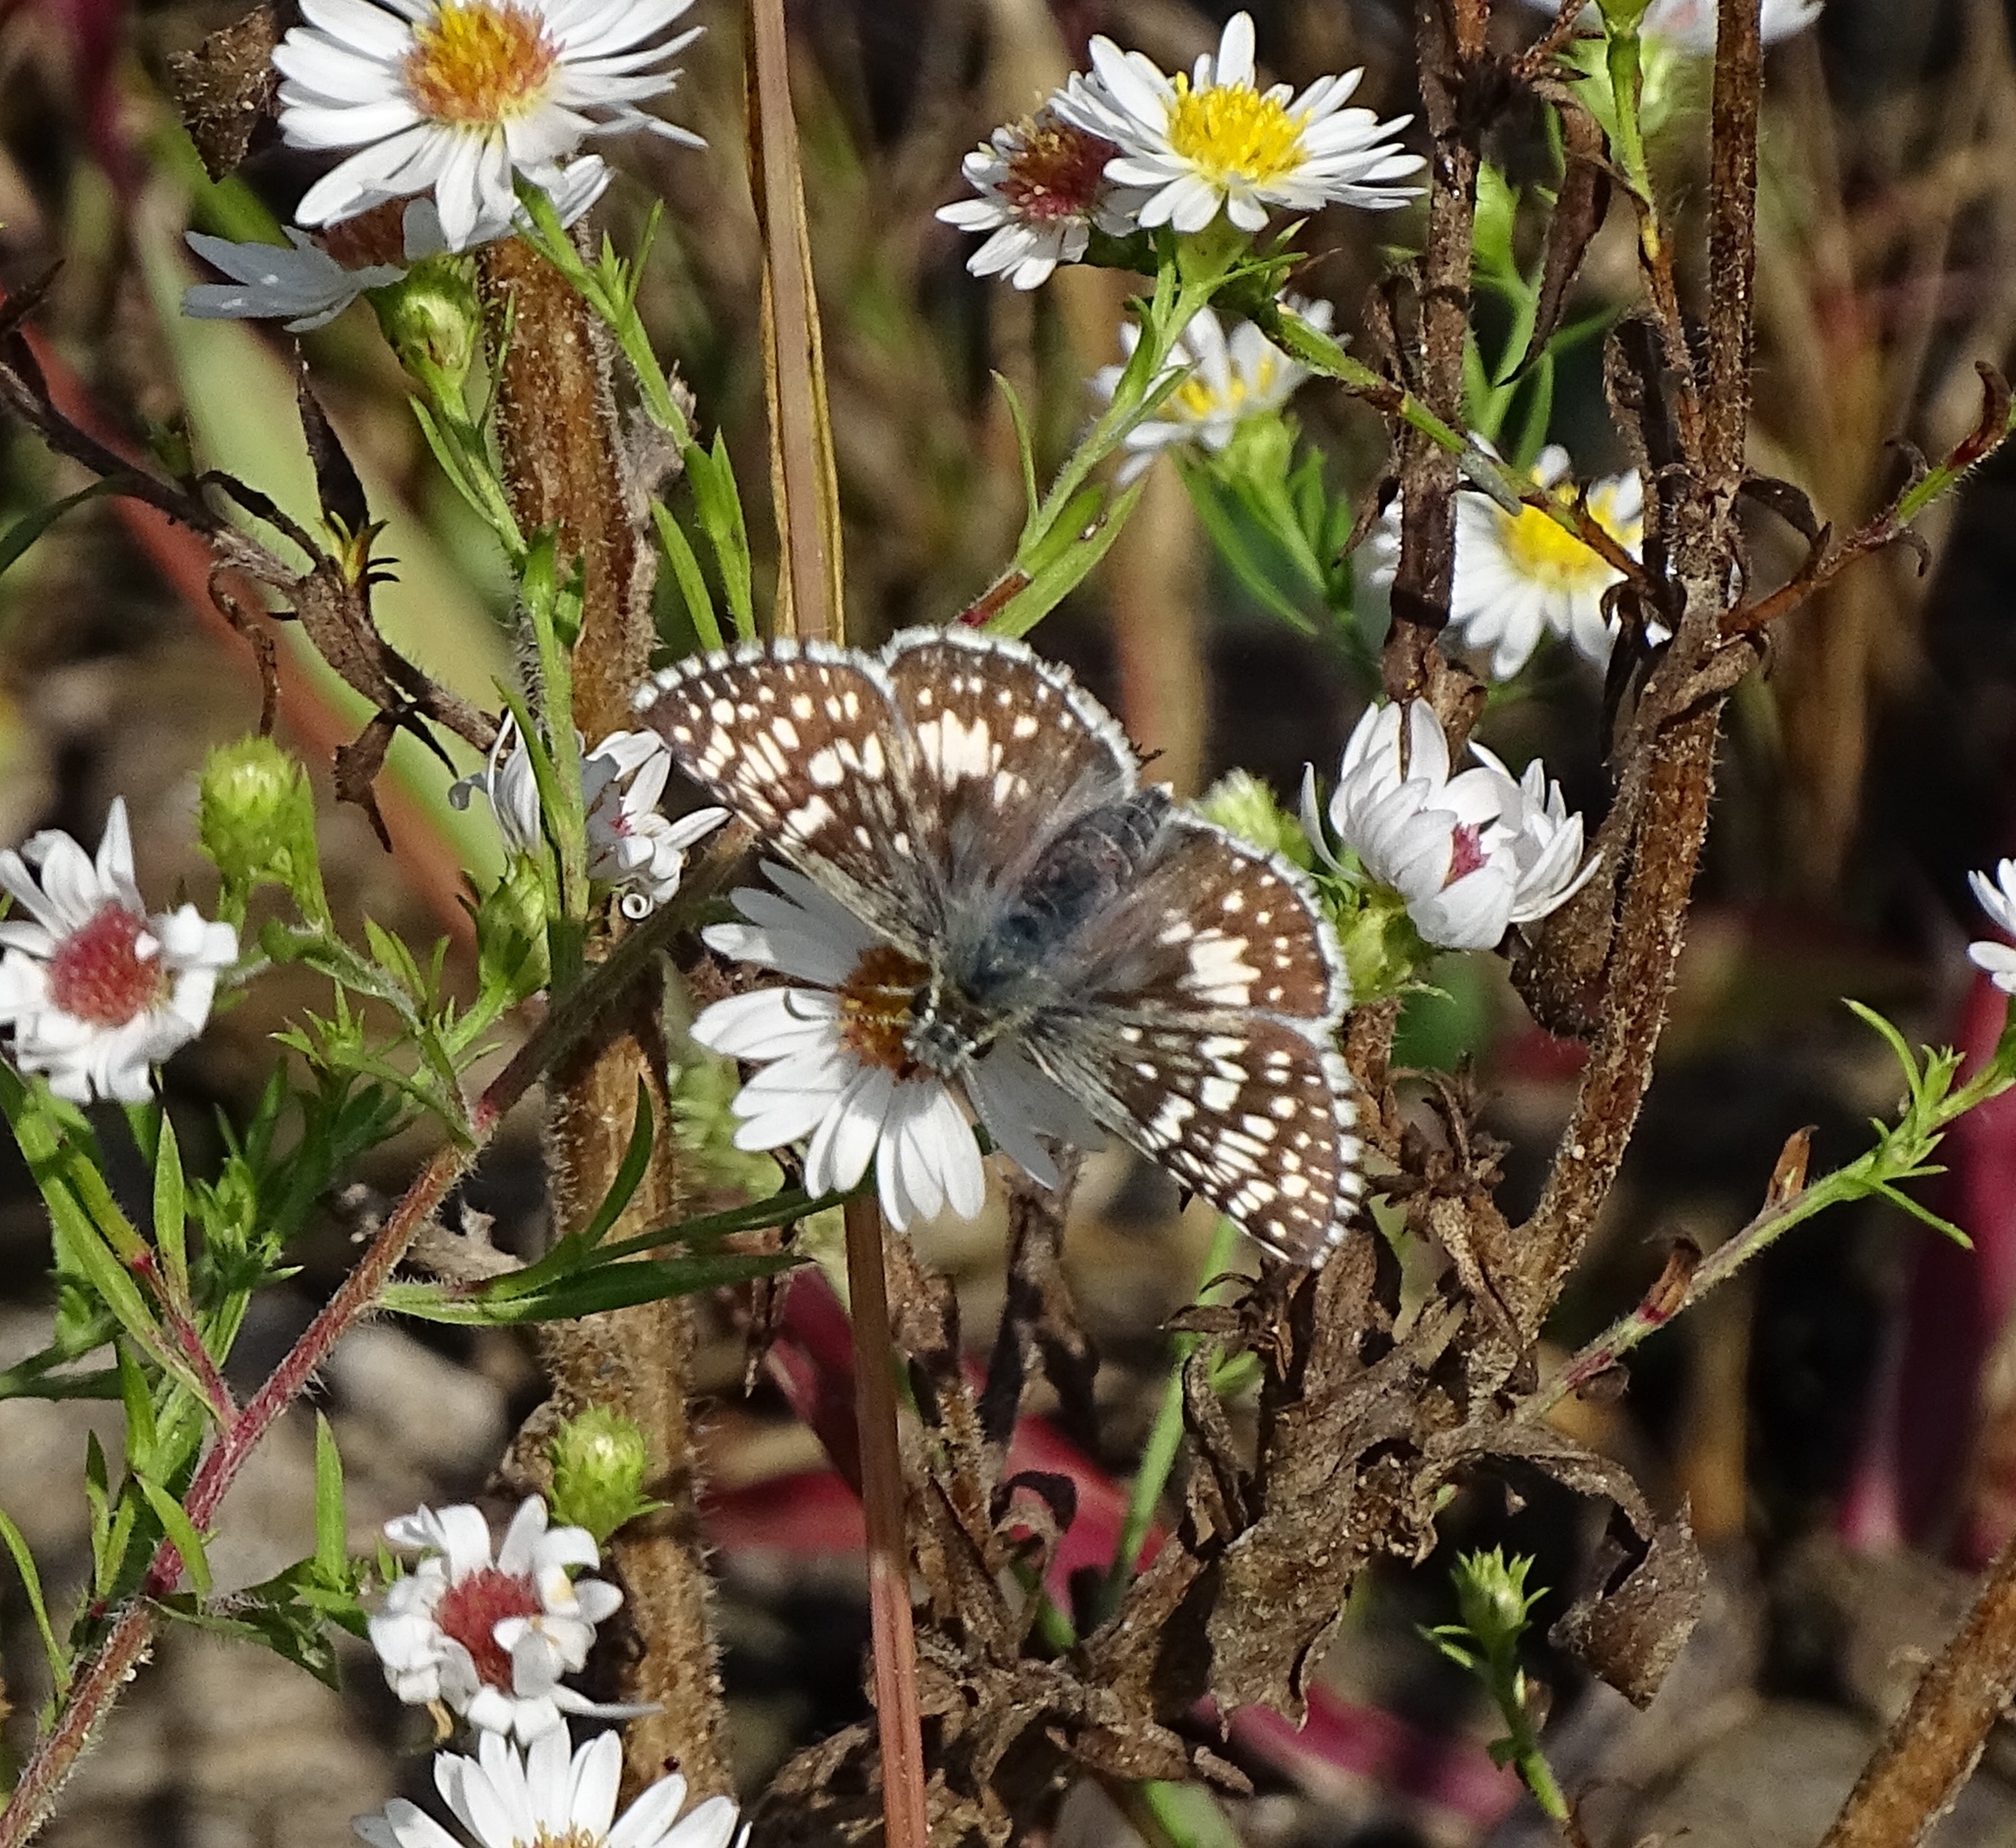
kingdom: Animalia
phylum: Arthropoda
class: Insecta
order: Lepidoptera
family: Hesperiidae
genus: Burnsius
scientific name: Burnsius communis
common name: Common checkered-skipper
